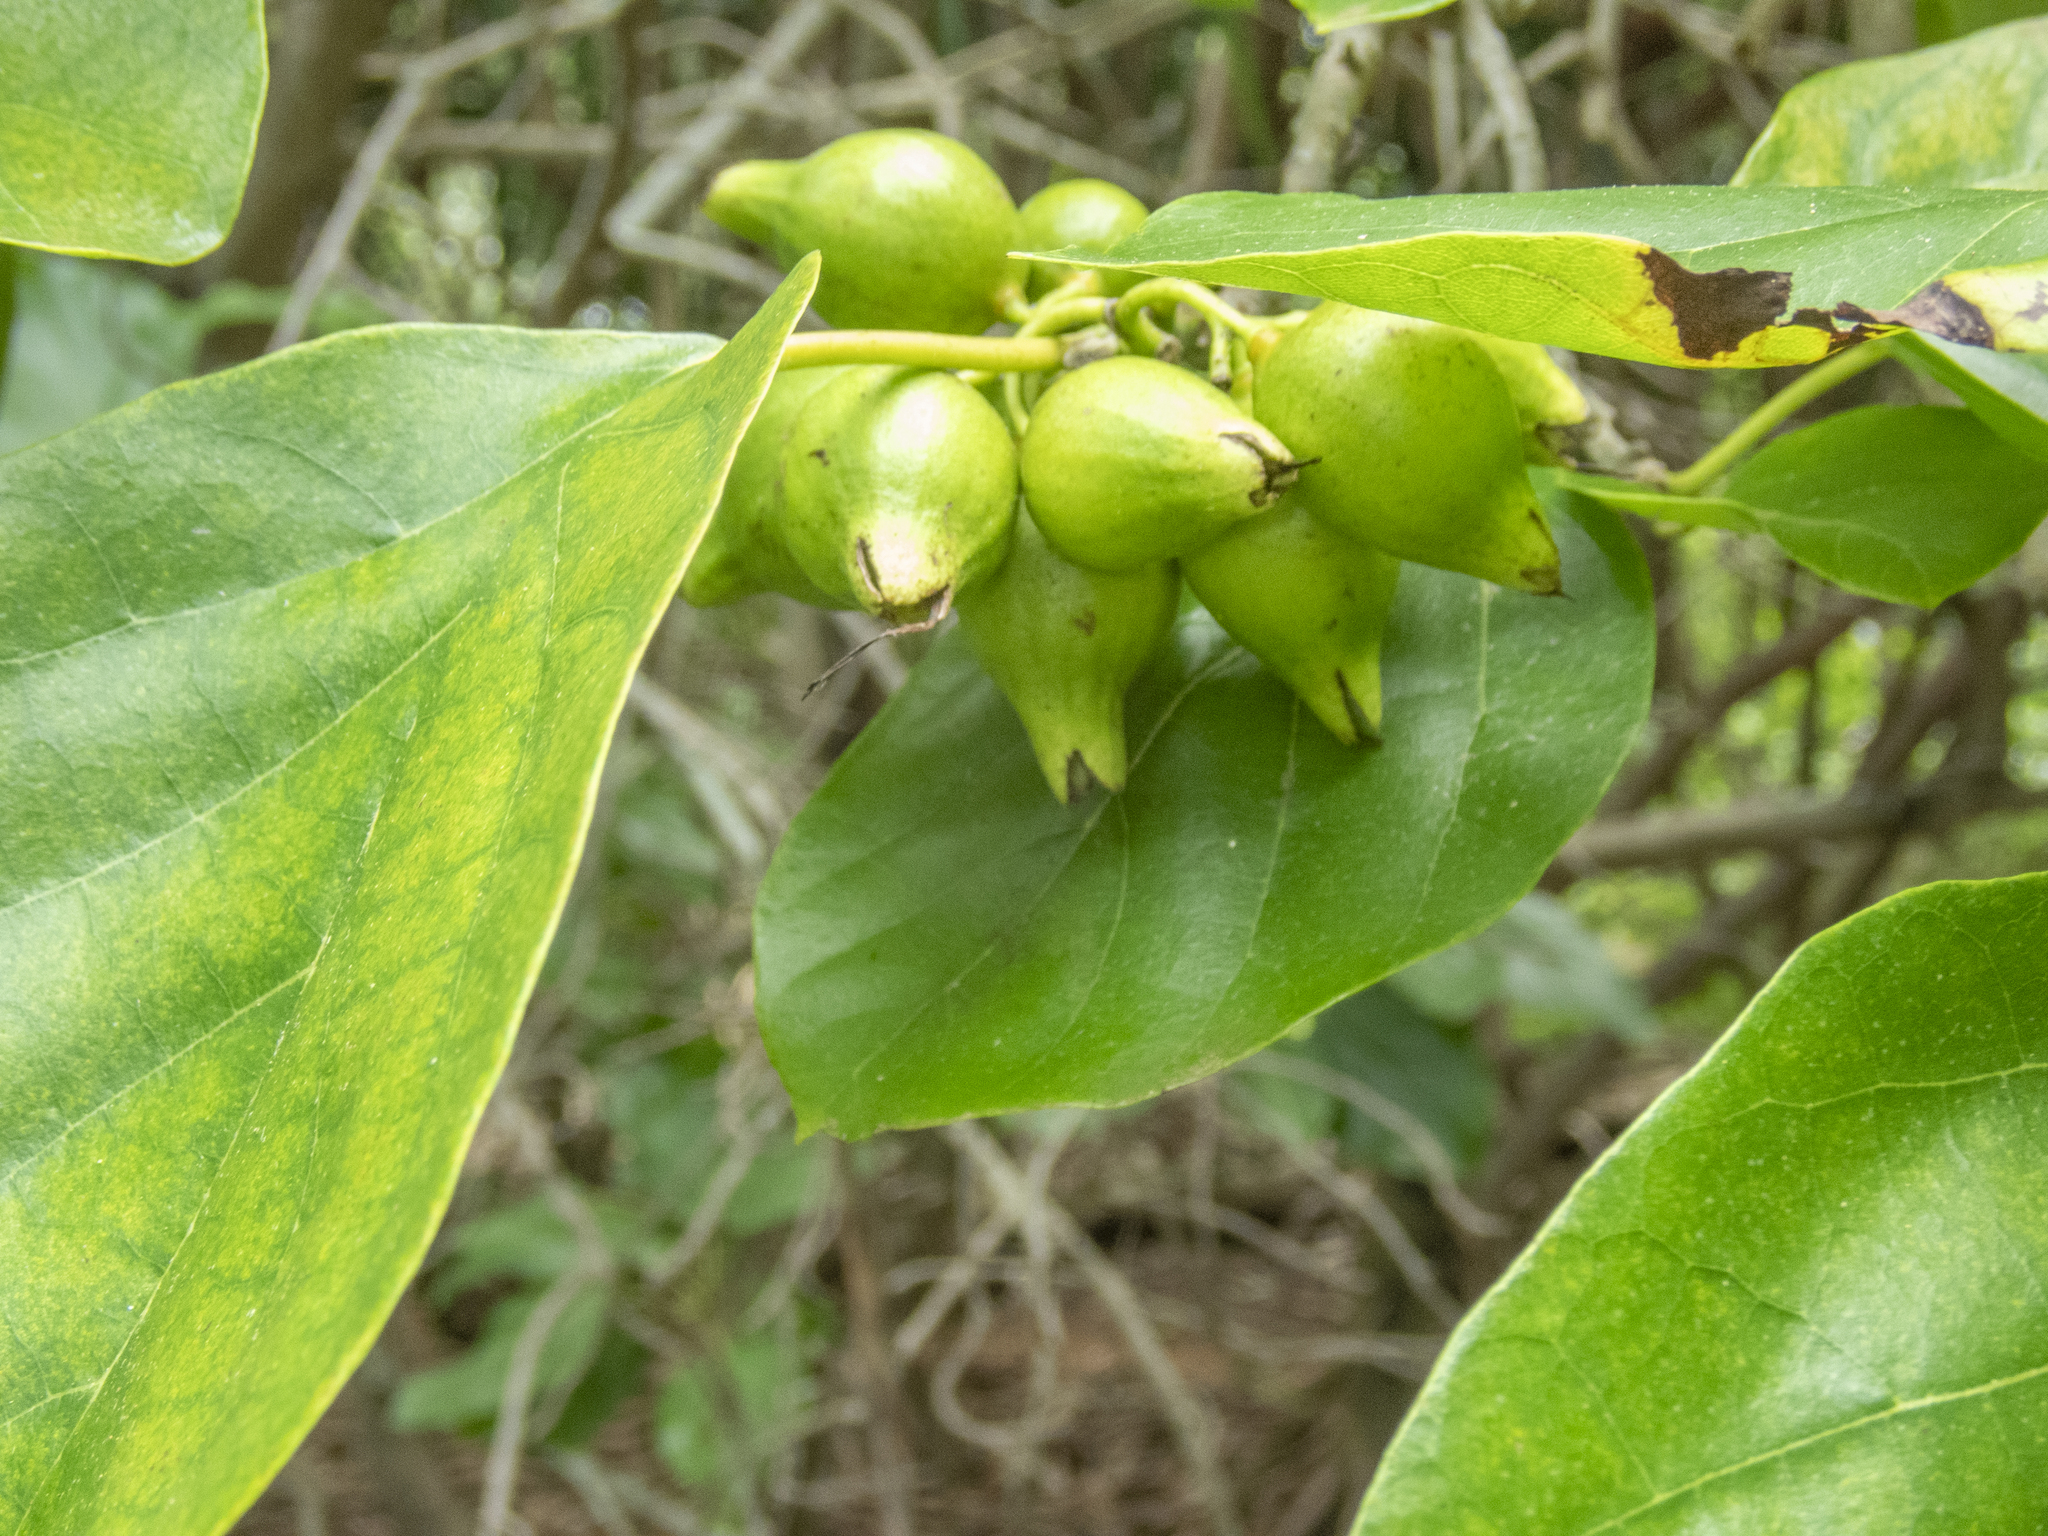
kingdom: Plantae
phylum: Tracheophyta
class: Magnoliopsida
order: Boraginales
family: Cordiaceae
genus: Cordia
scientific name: Cordia subcordata
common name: Mareer
